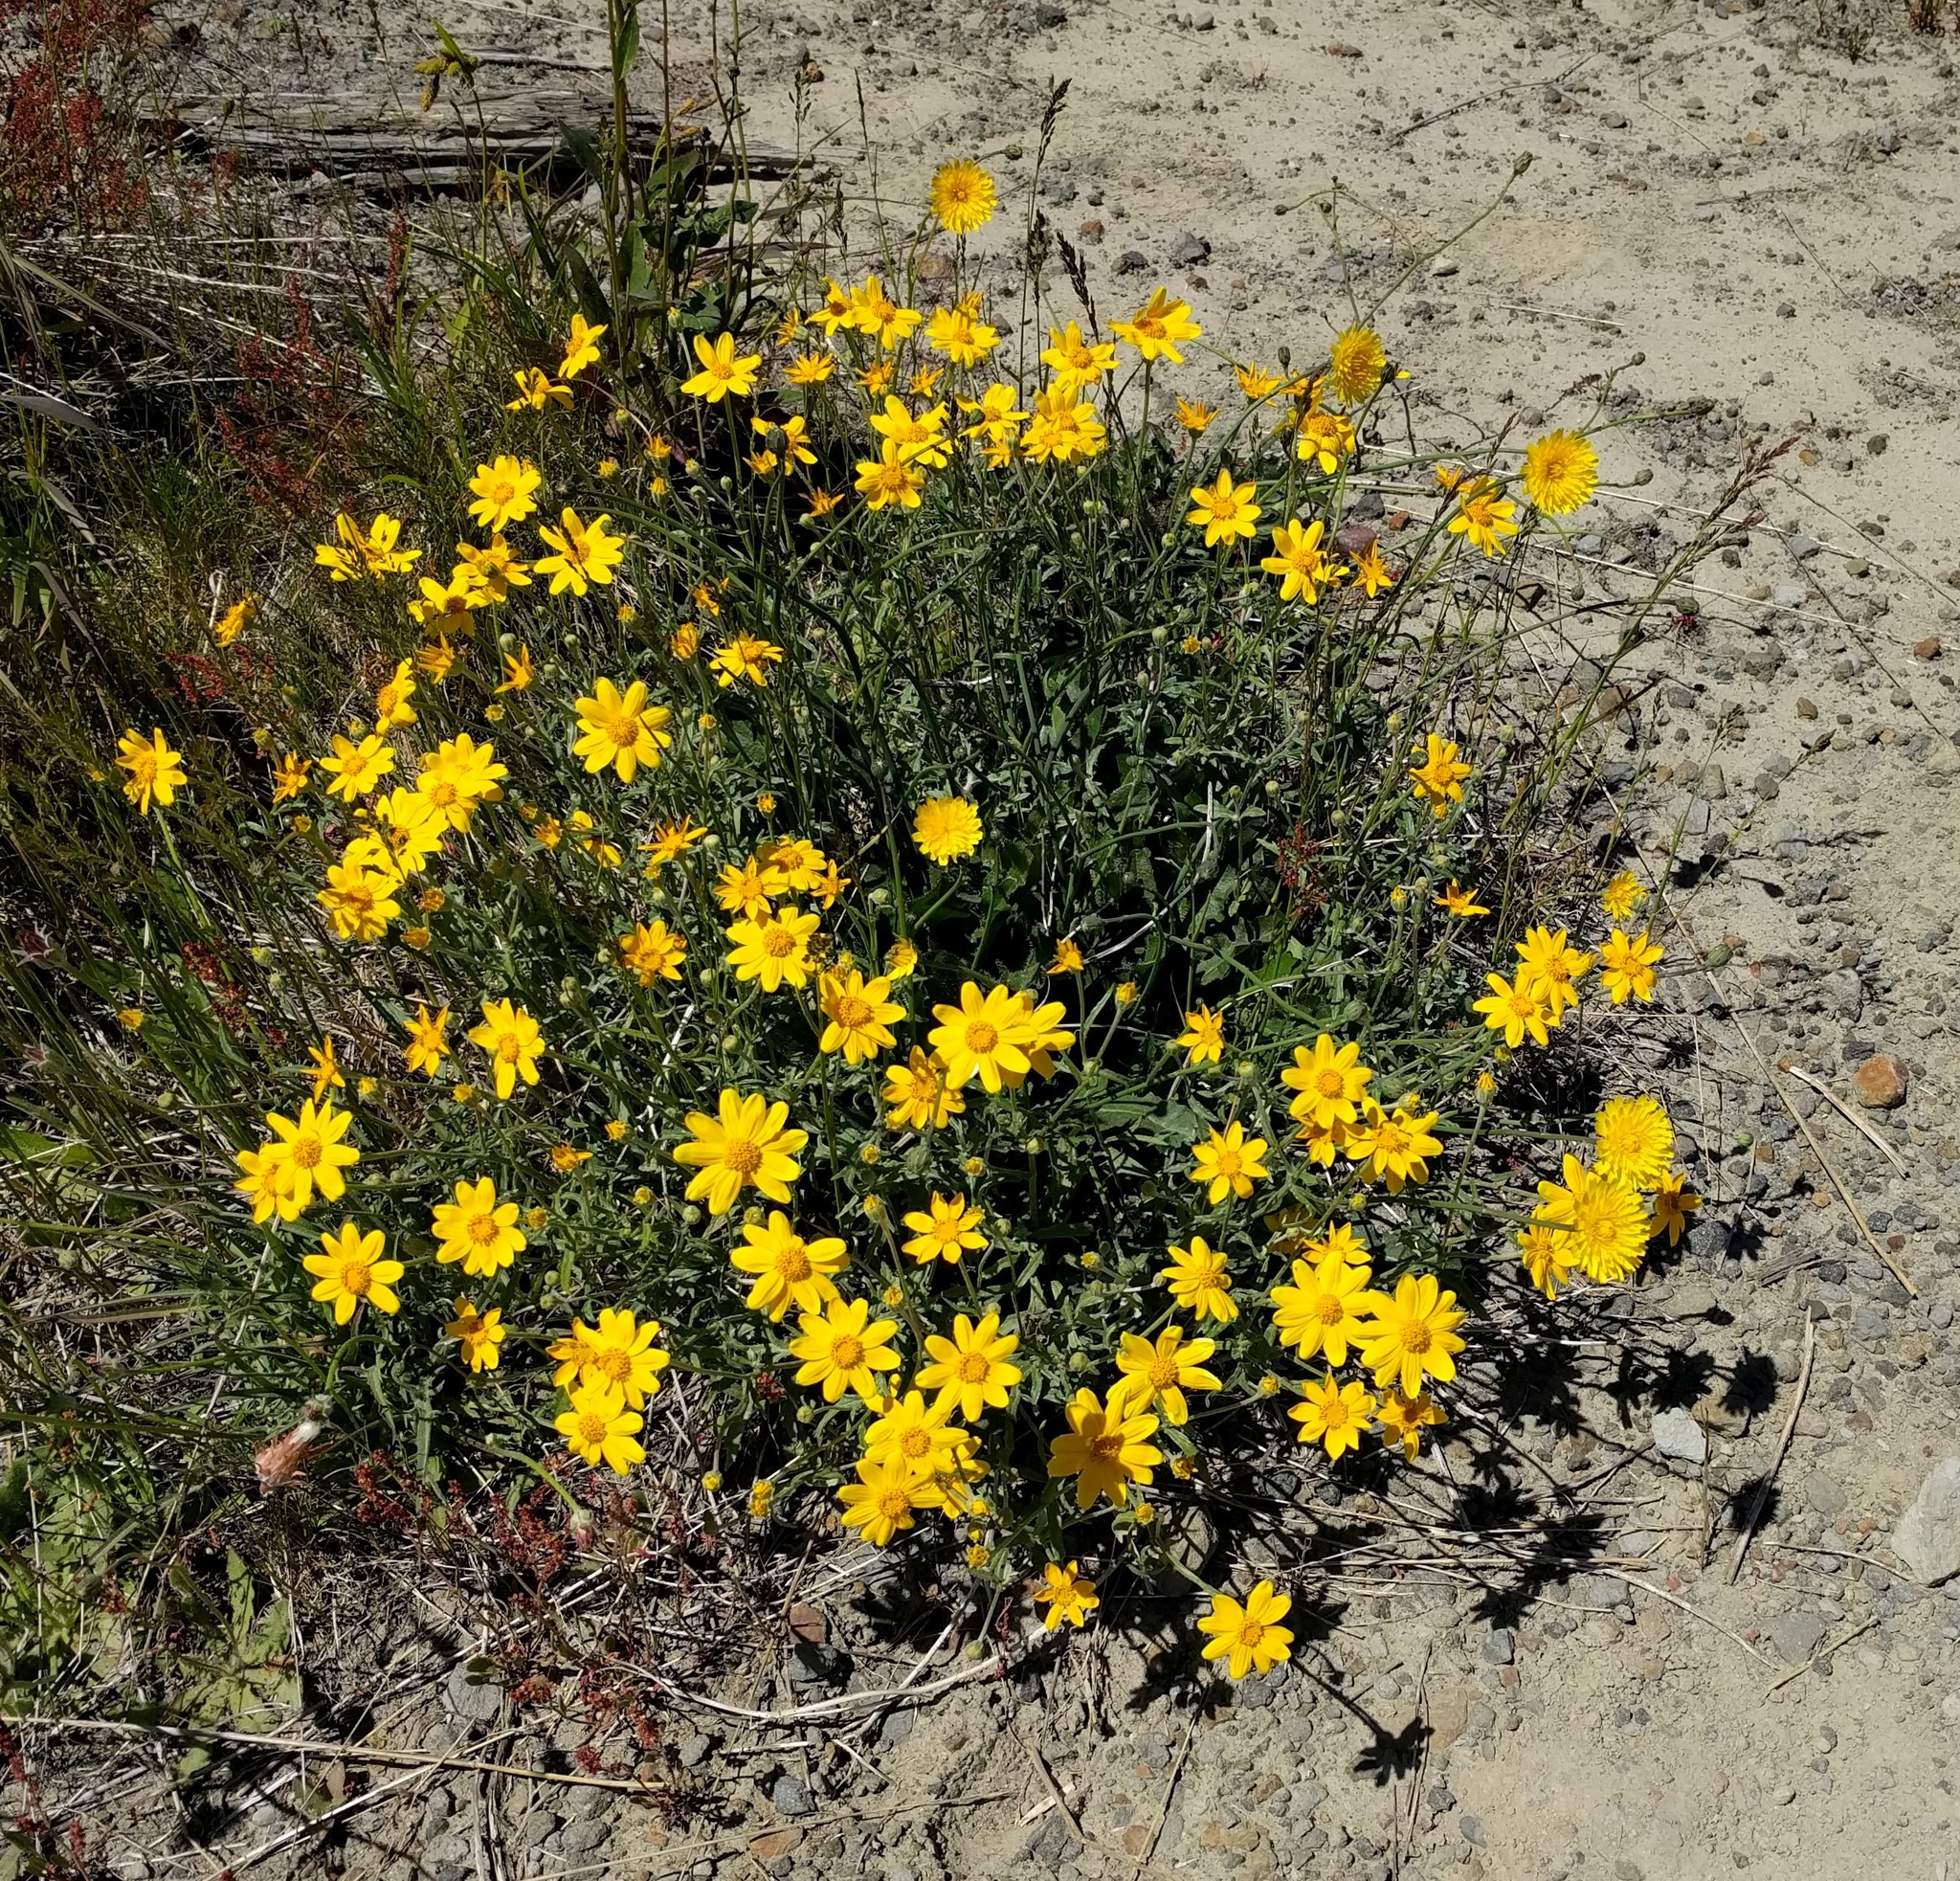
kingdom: Plantae
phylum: Tracheophyta
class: Magnoliopsida
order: Asterales
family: Asteraceae
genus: Eriophyllum
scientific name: Eriophyllum lanatum
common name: Common woolly-sunflower
